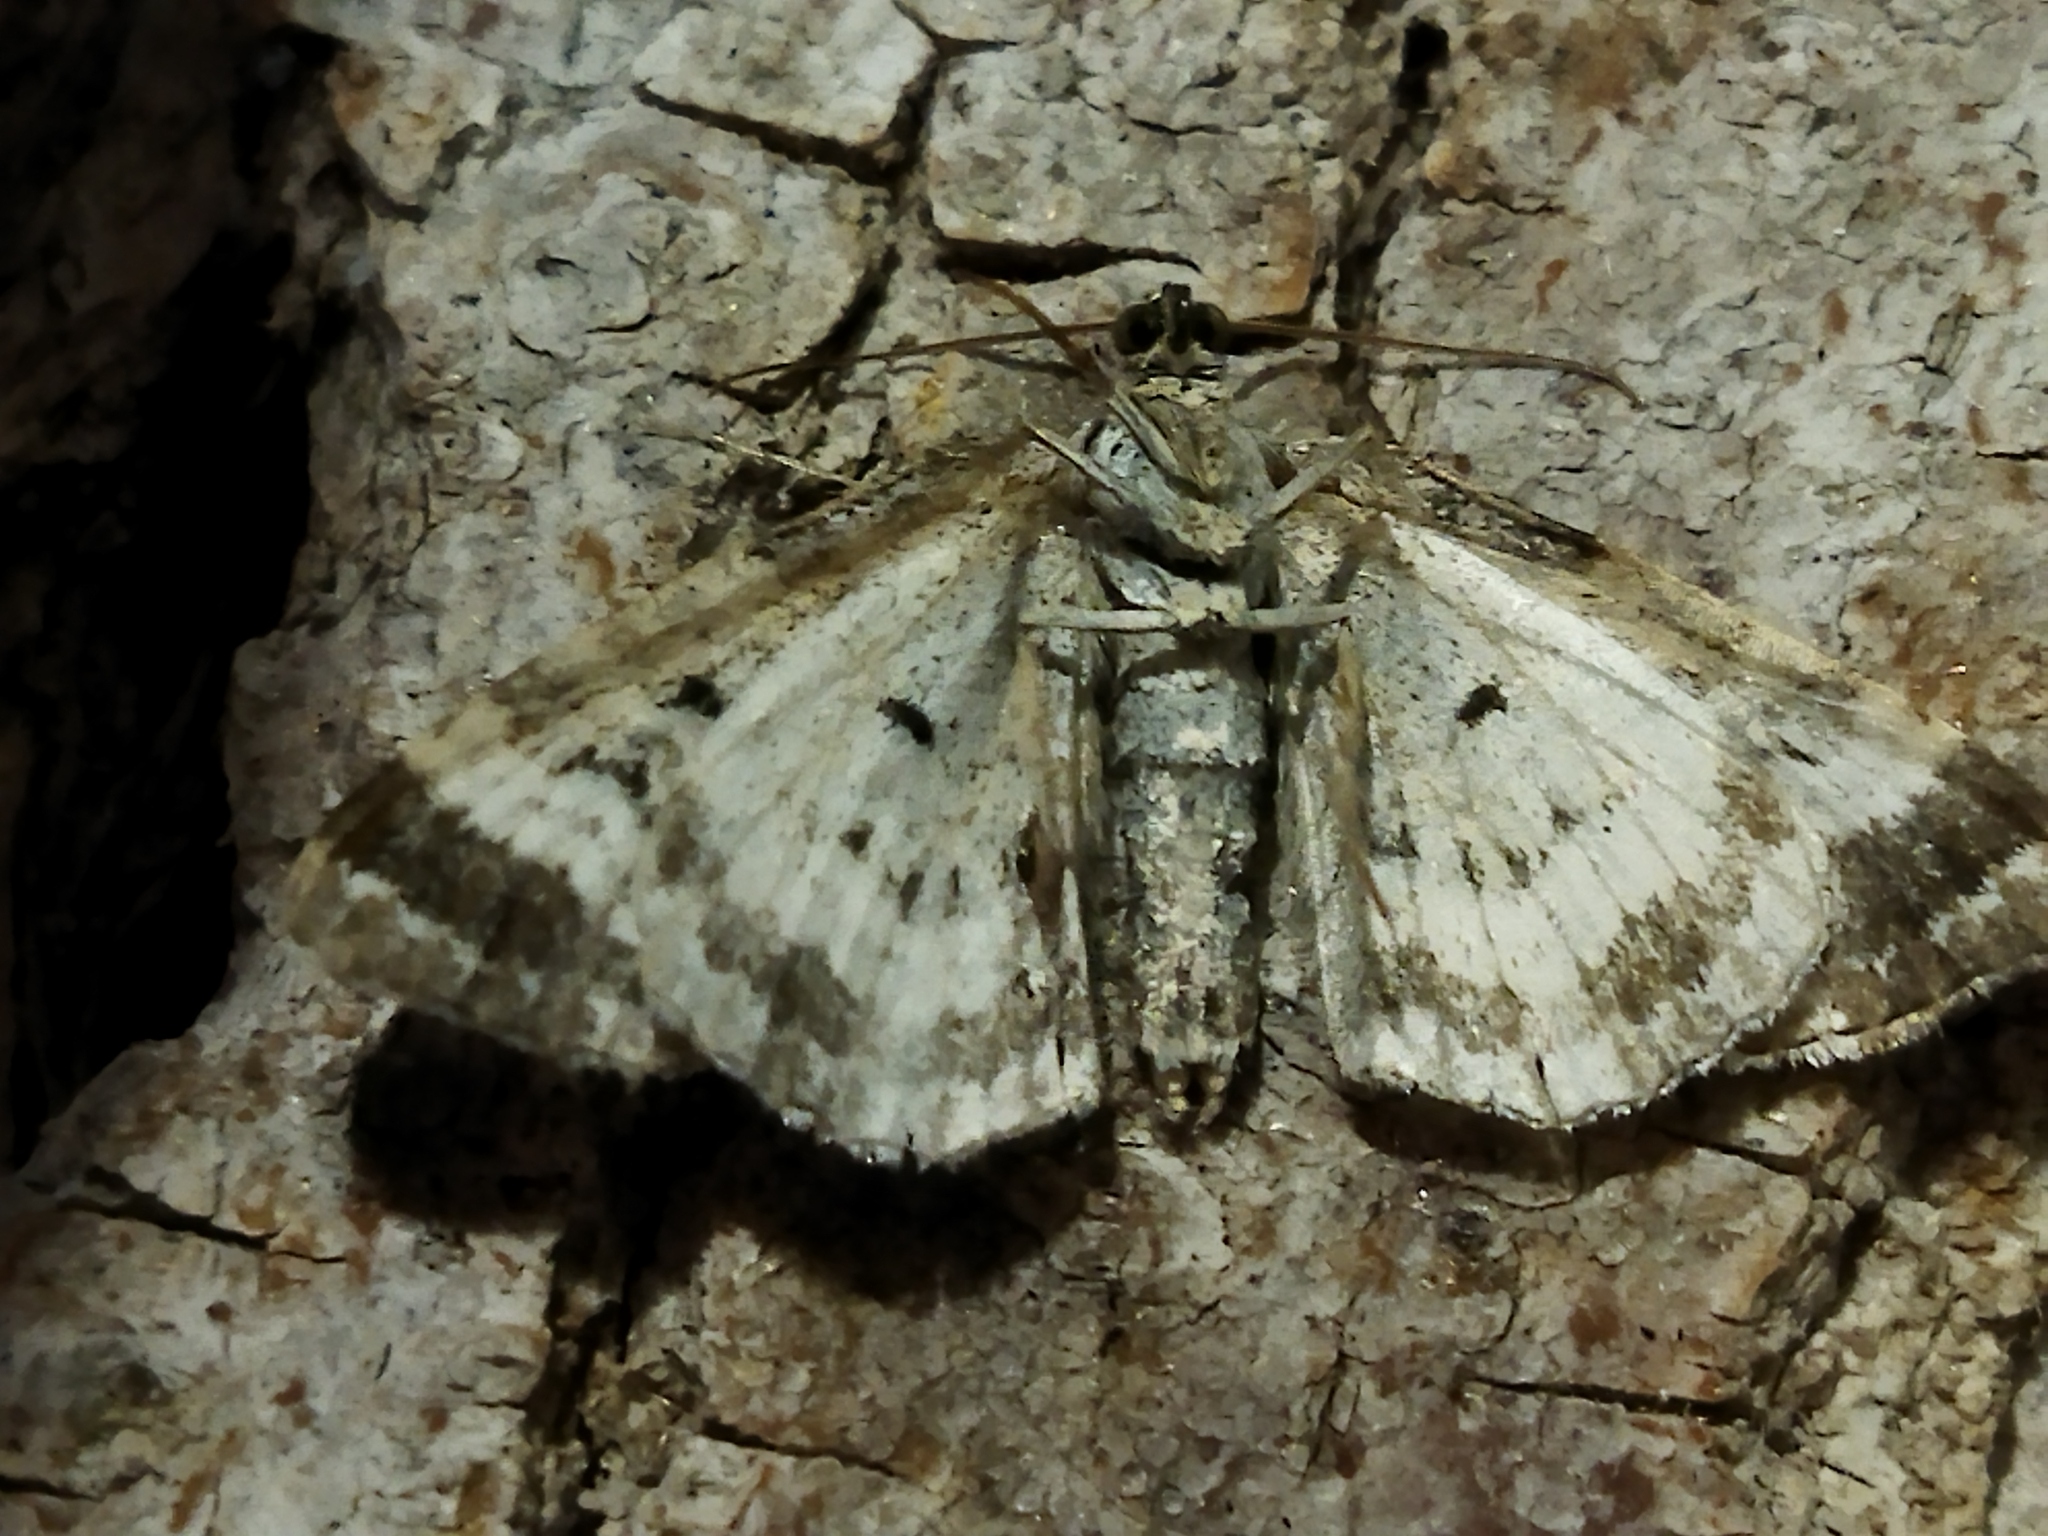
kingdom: Animalia
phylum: Arthropoda
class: Insecta
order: Lepidoptera
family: Geometridae
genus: Epirrhoe
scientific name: Epirrhoe alternata
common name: Common carpet
